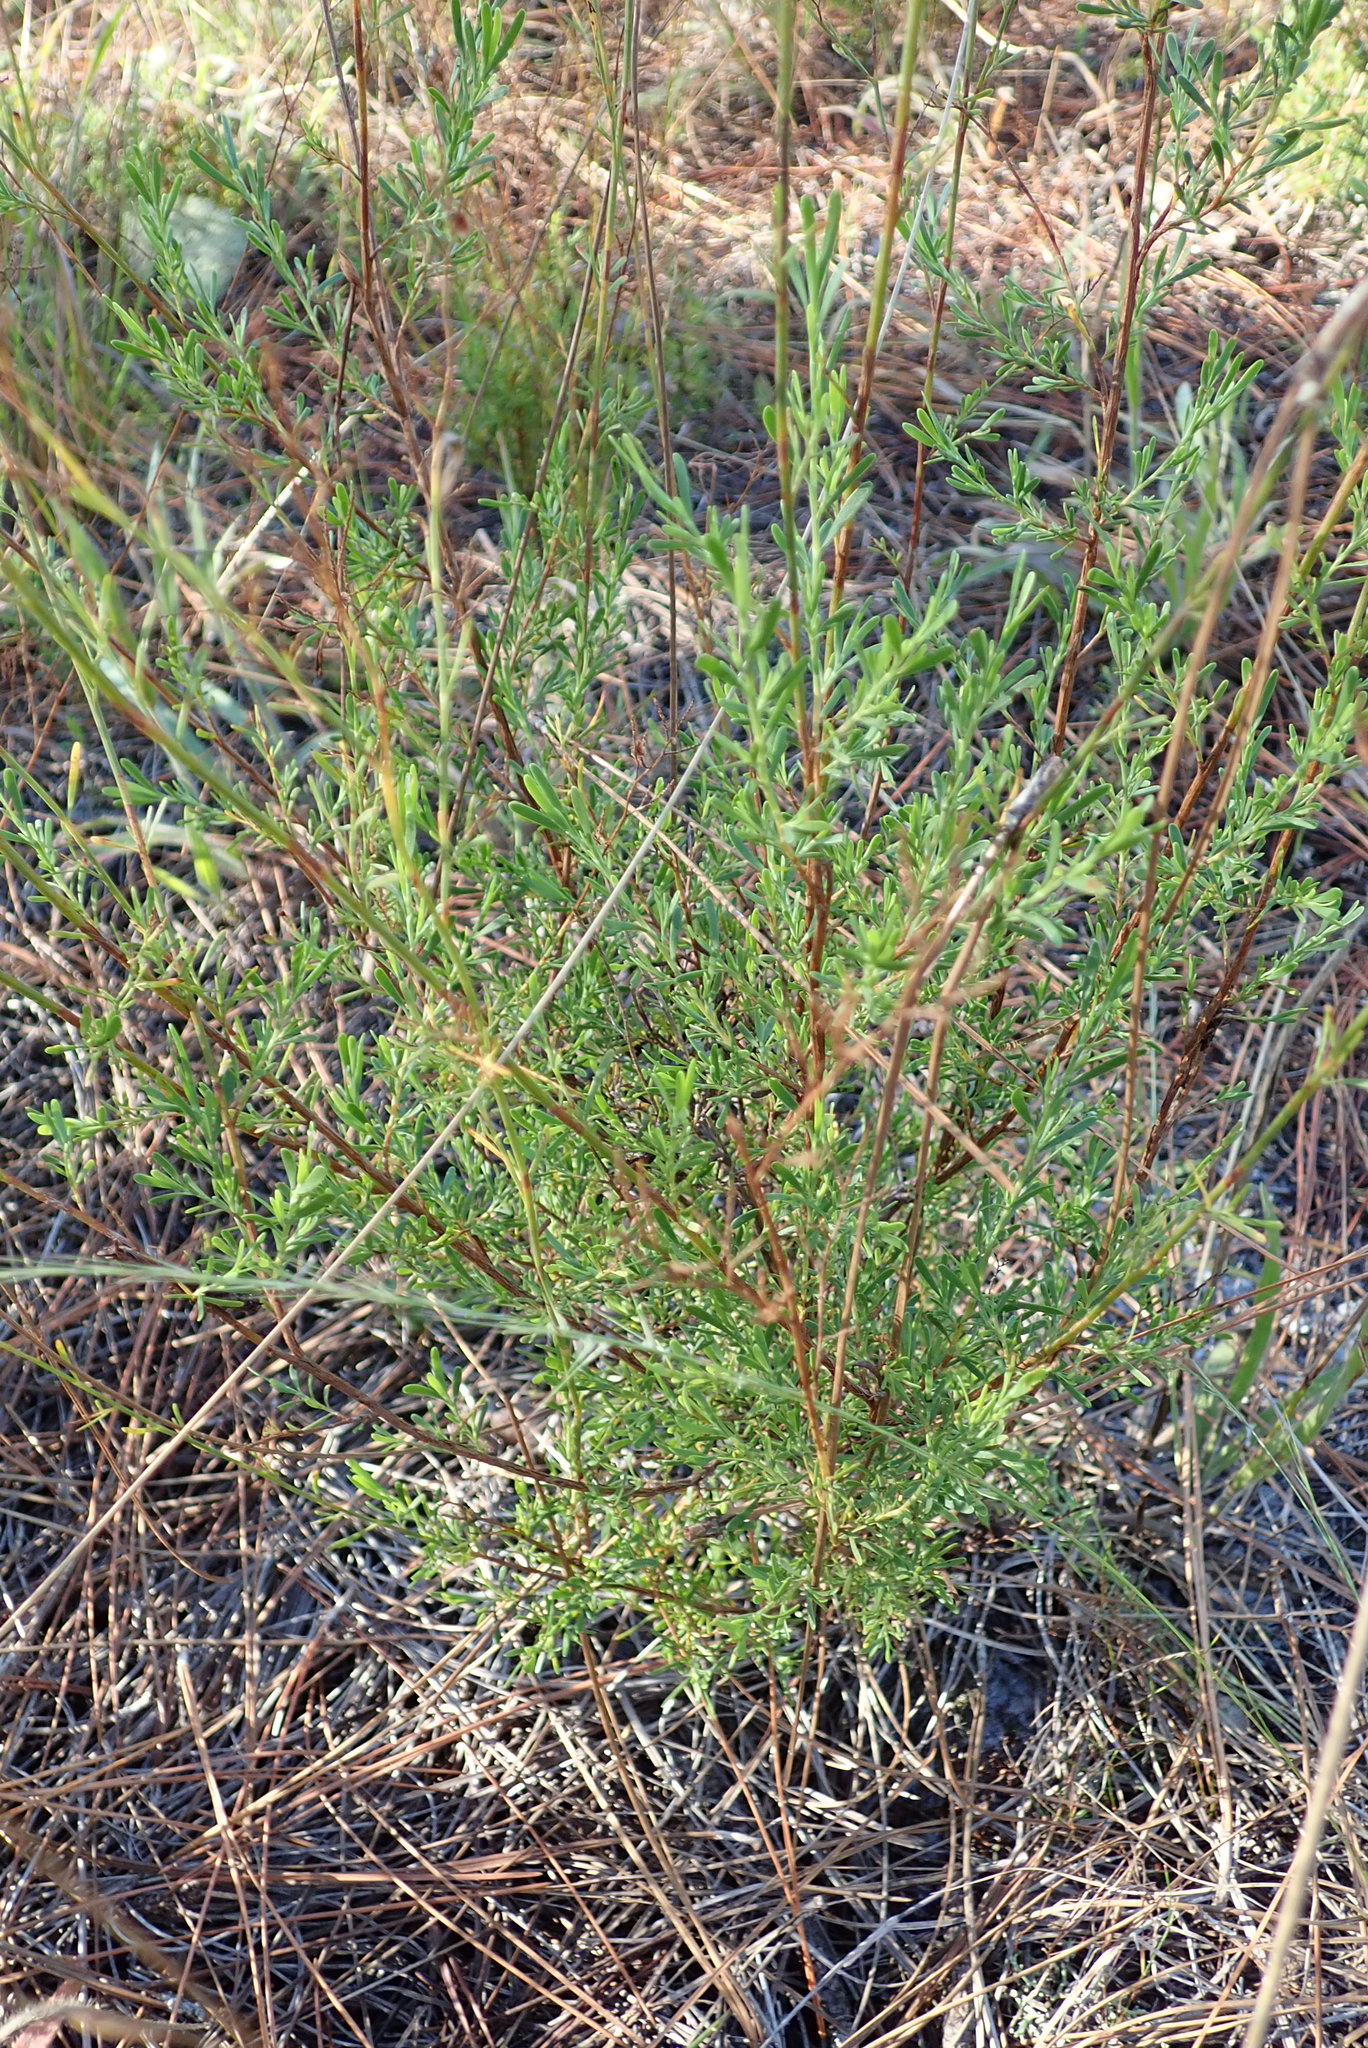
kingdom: Plantae
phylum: Tracheophyta
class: Magnoliopsida
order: Caryophyllales
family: Polygonaceae
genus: Polygonella
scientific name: Polygonella polygama
